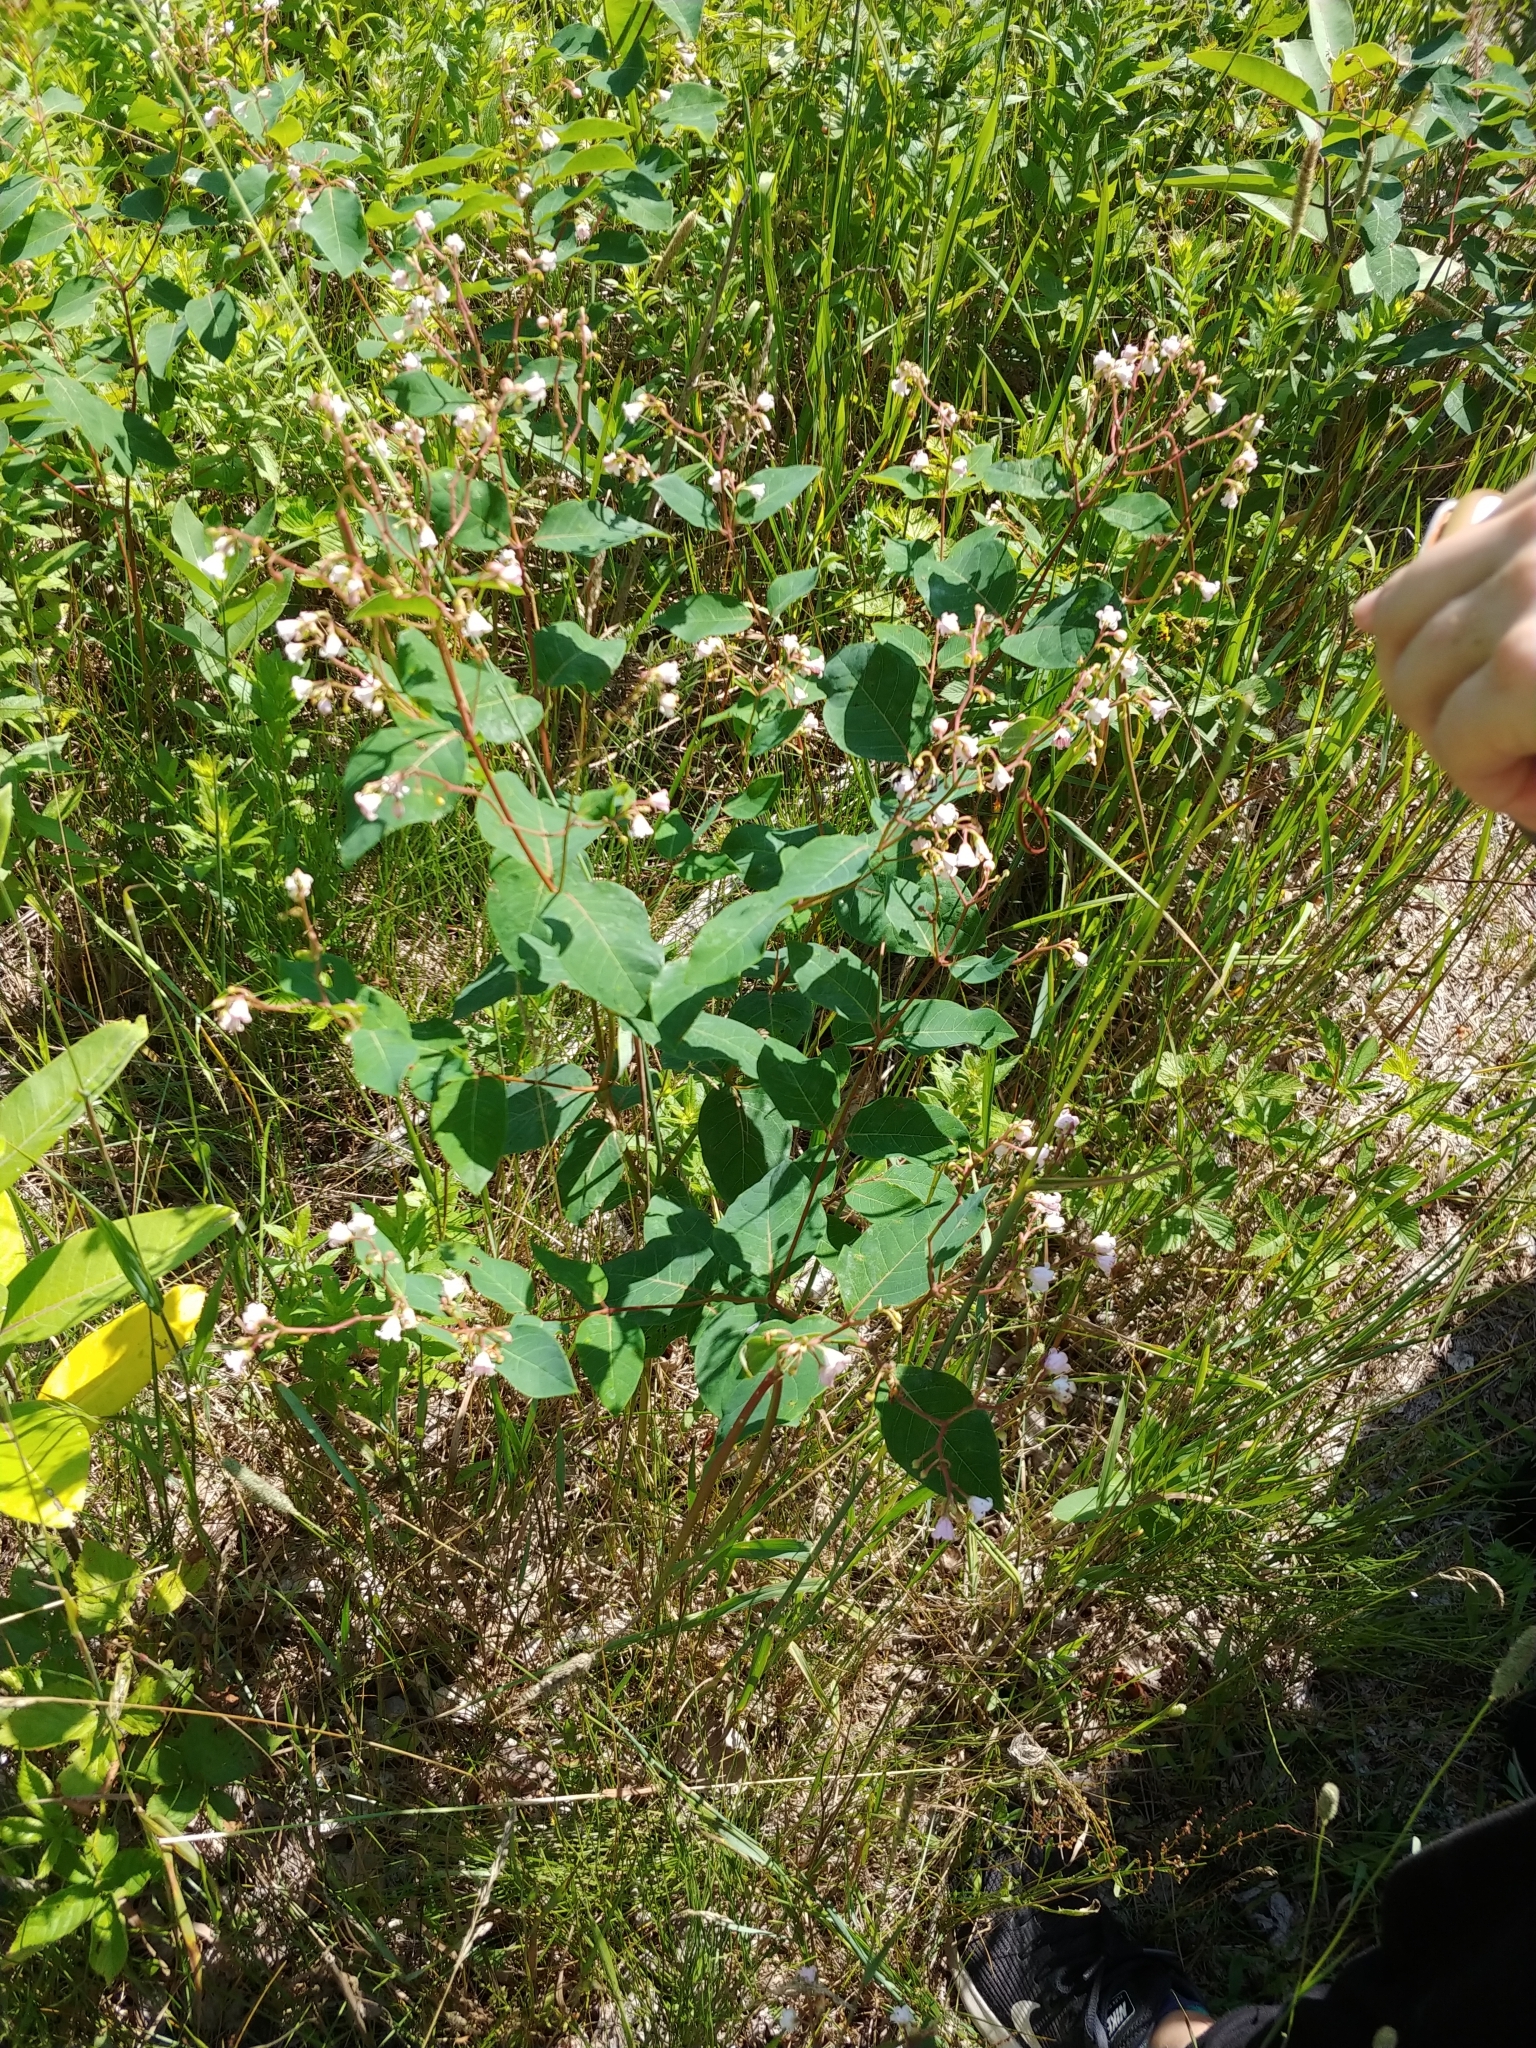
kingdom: Plantae
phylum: Tracheophyta
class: Magnoliopsida
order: Gentianales
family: Apocynaceae
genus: Apocynum
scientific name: Apocynum androsaemifolium
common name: Spreading dogbane
